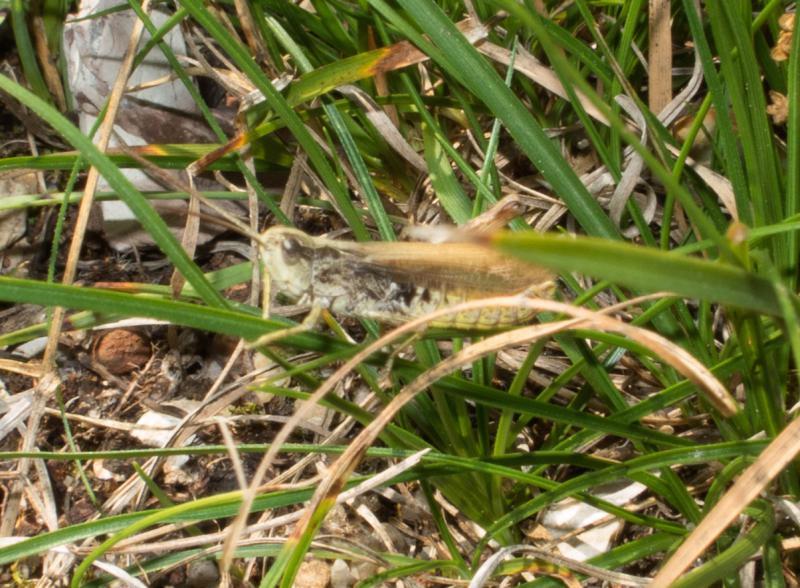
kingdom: Animalia
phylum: Arthropoda
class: Insecta
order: Orthoptera
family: Acrididae
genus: Chorthippus
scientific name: Chorthippus apricarius
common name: Upland field grasshopper
